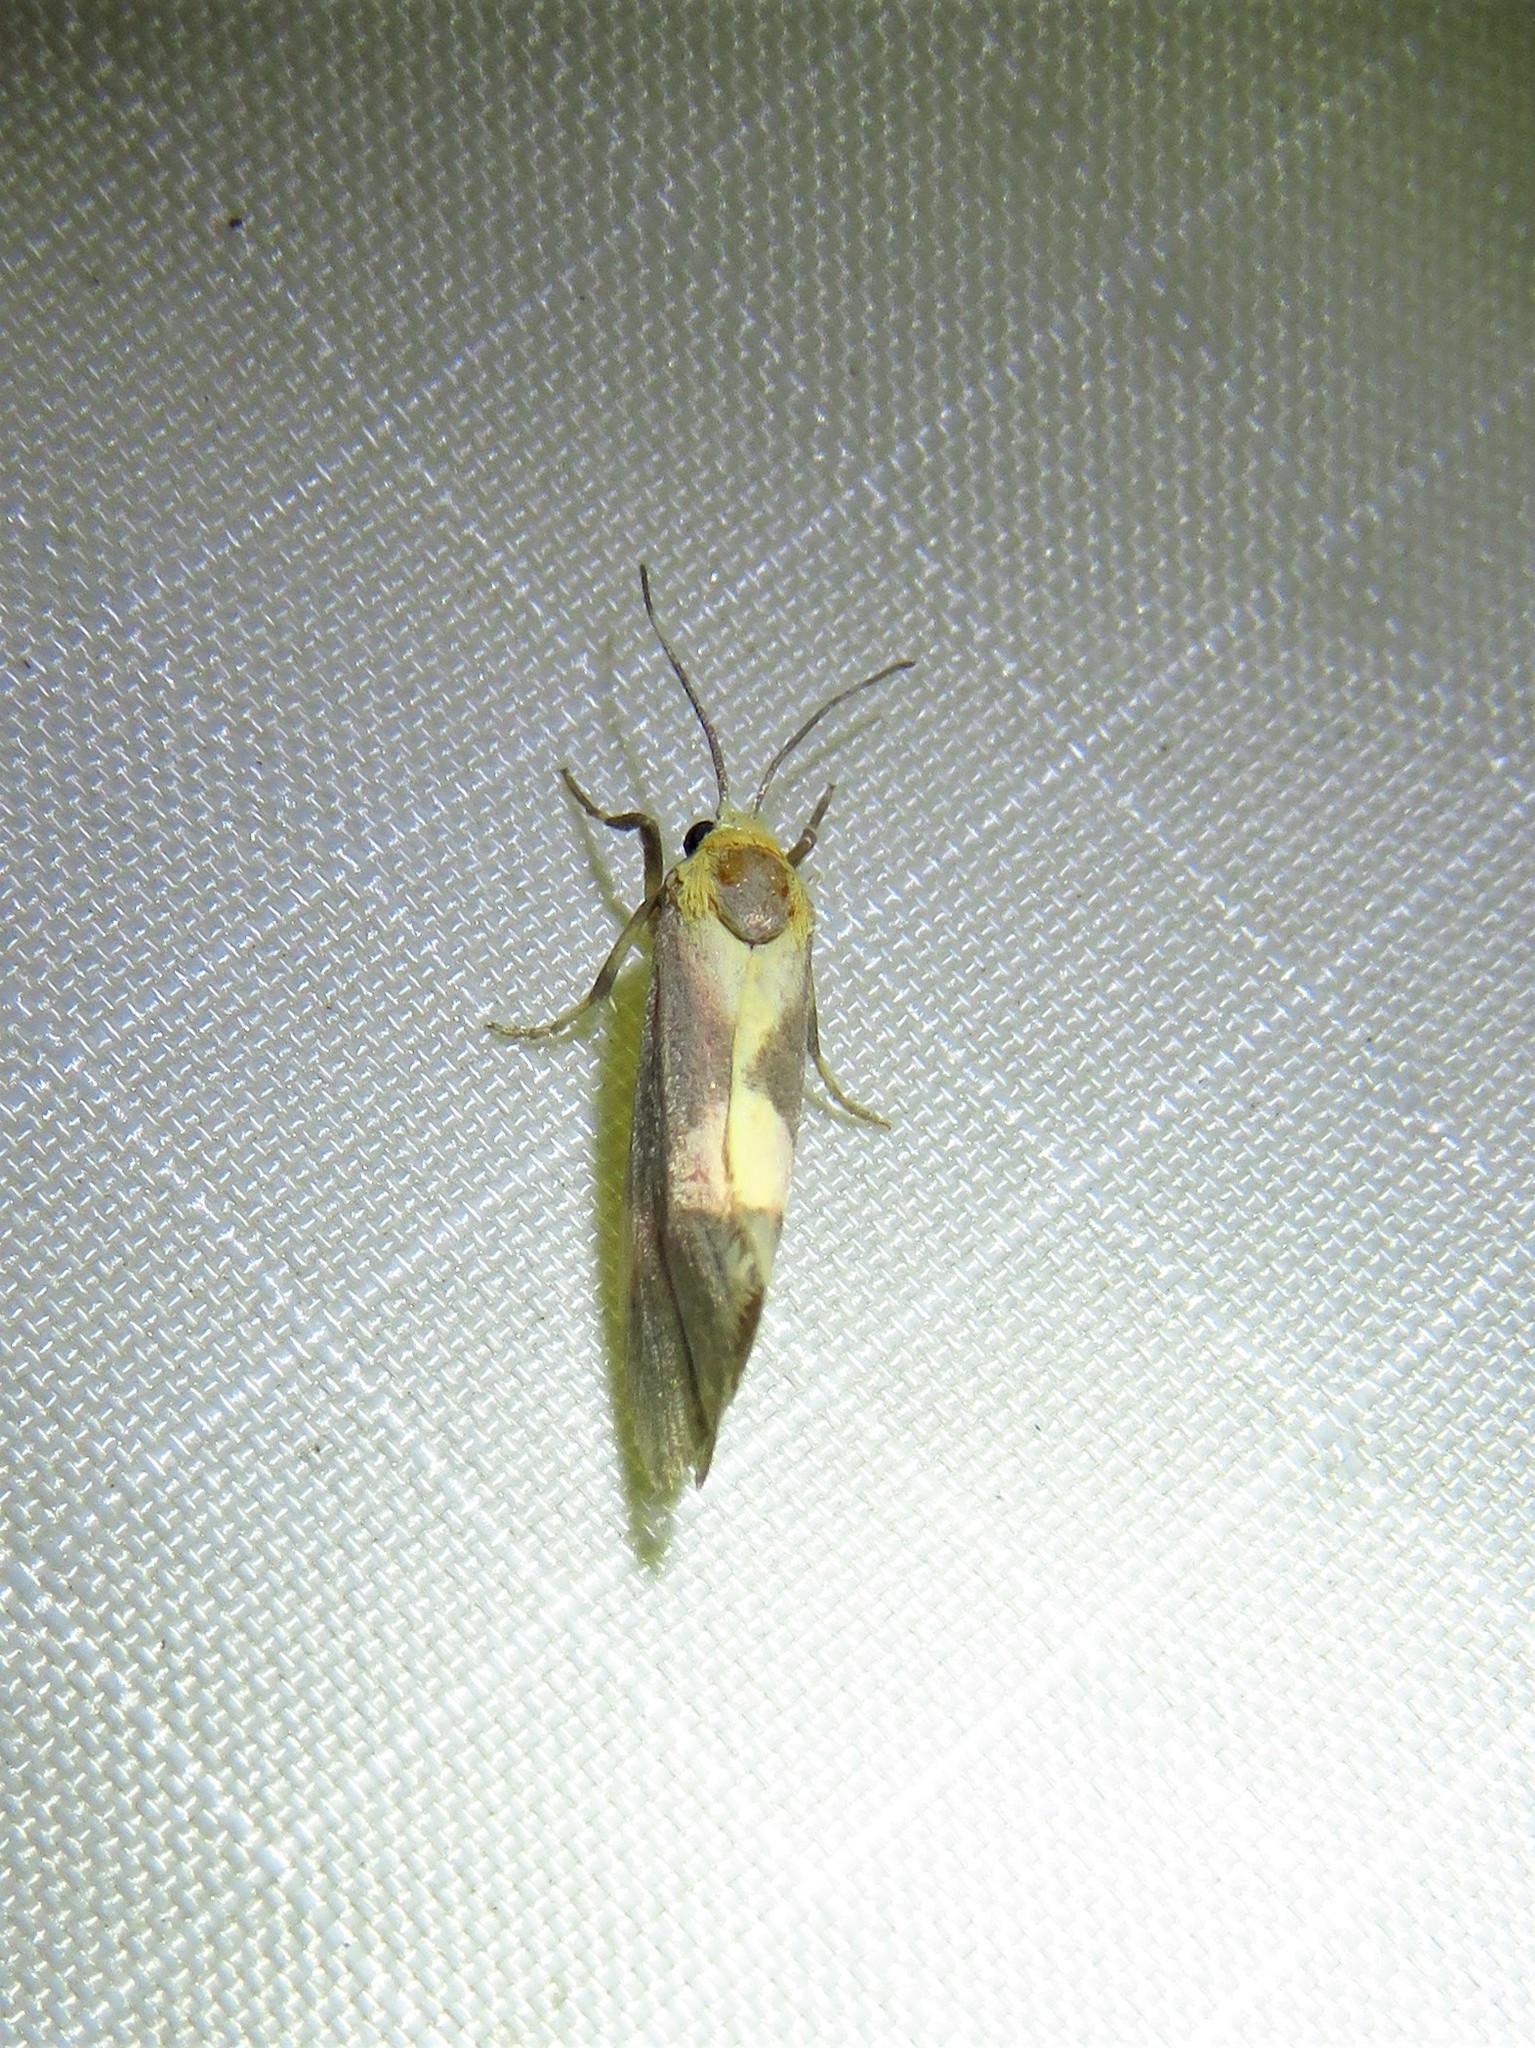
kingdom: Animalia
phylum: Arthropoda
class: Insecta
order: Lepidoptera
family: Erebidae
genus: Cisthene
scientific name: Cisthene unifascia
